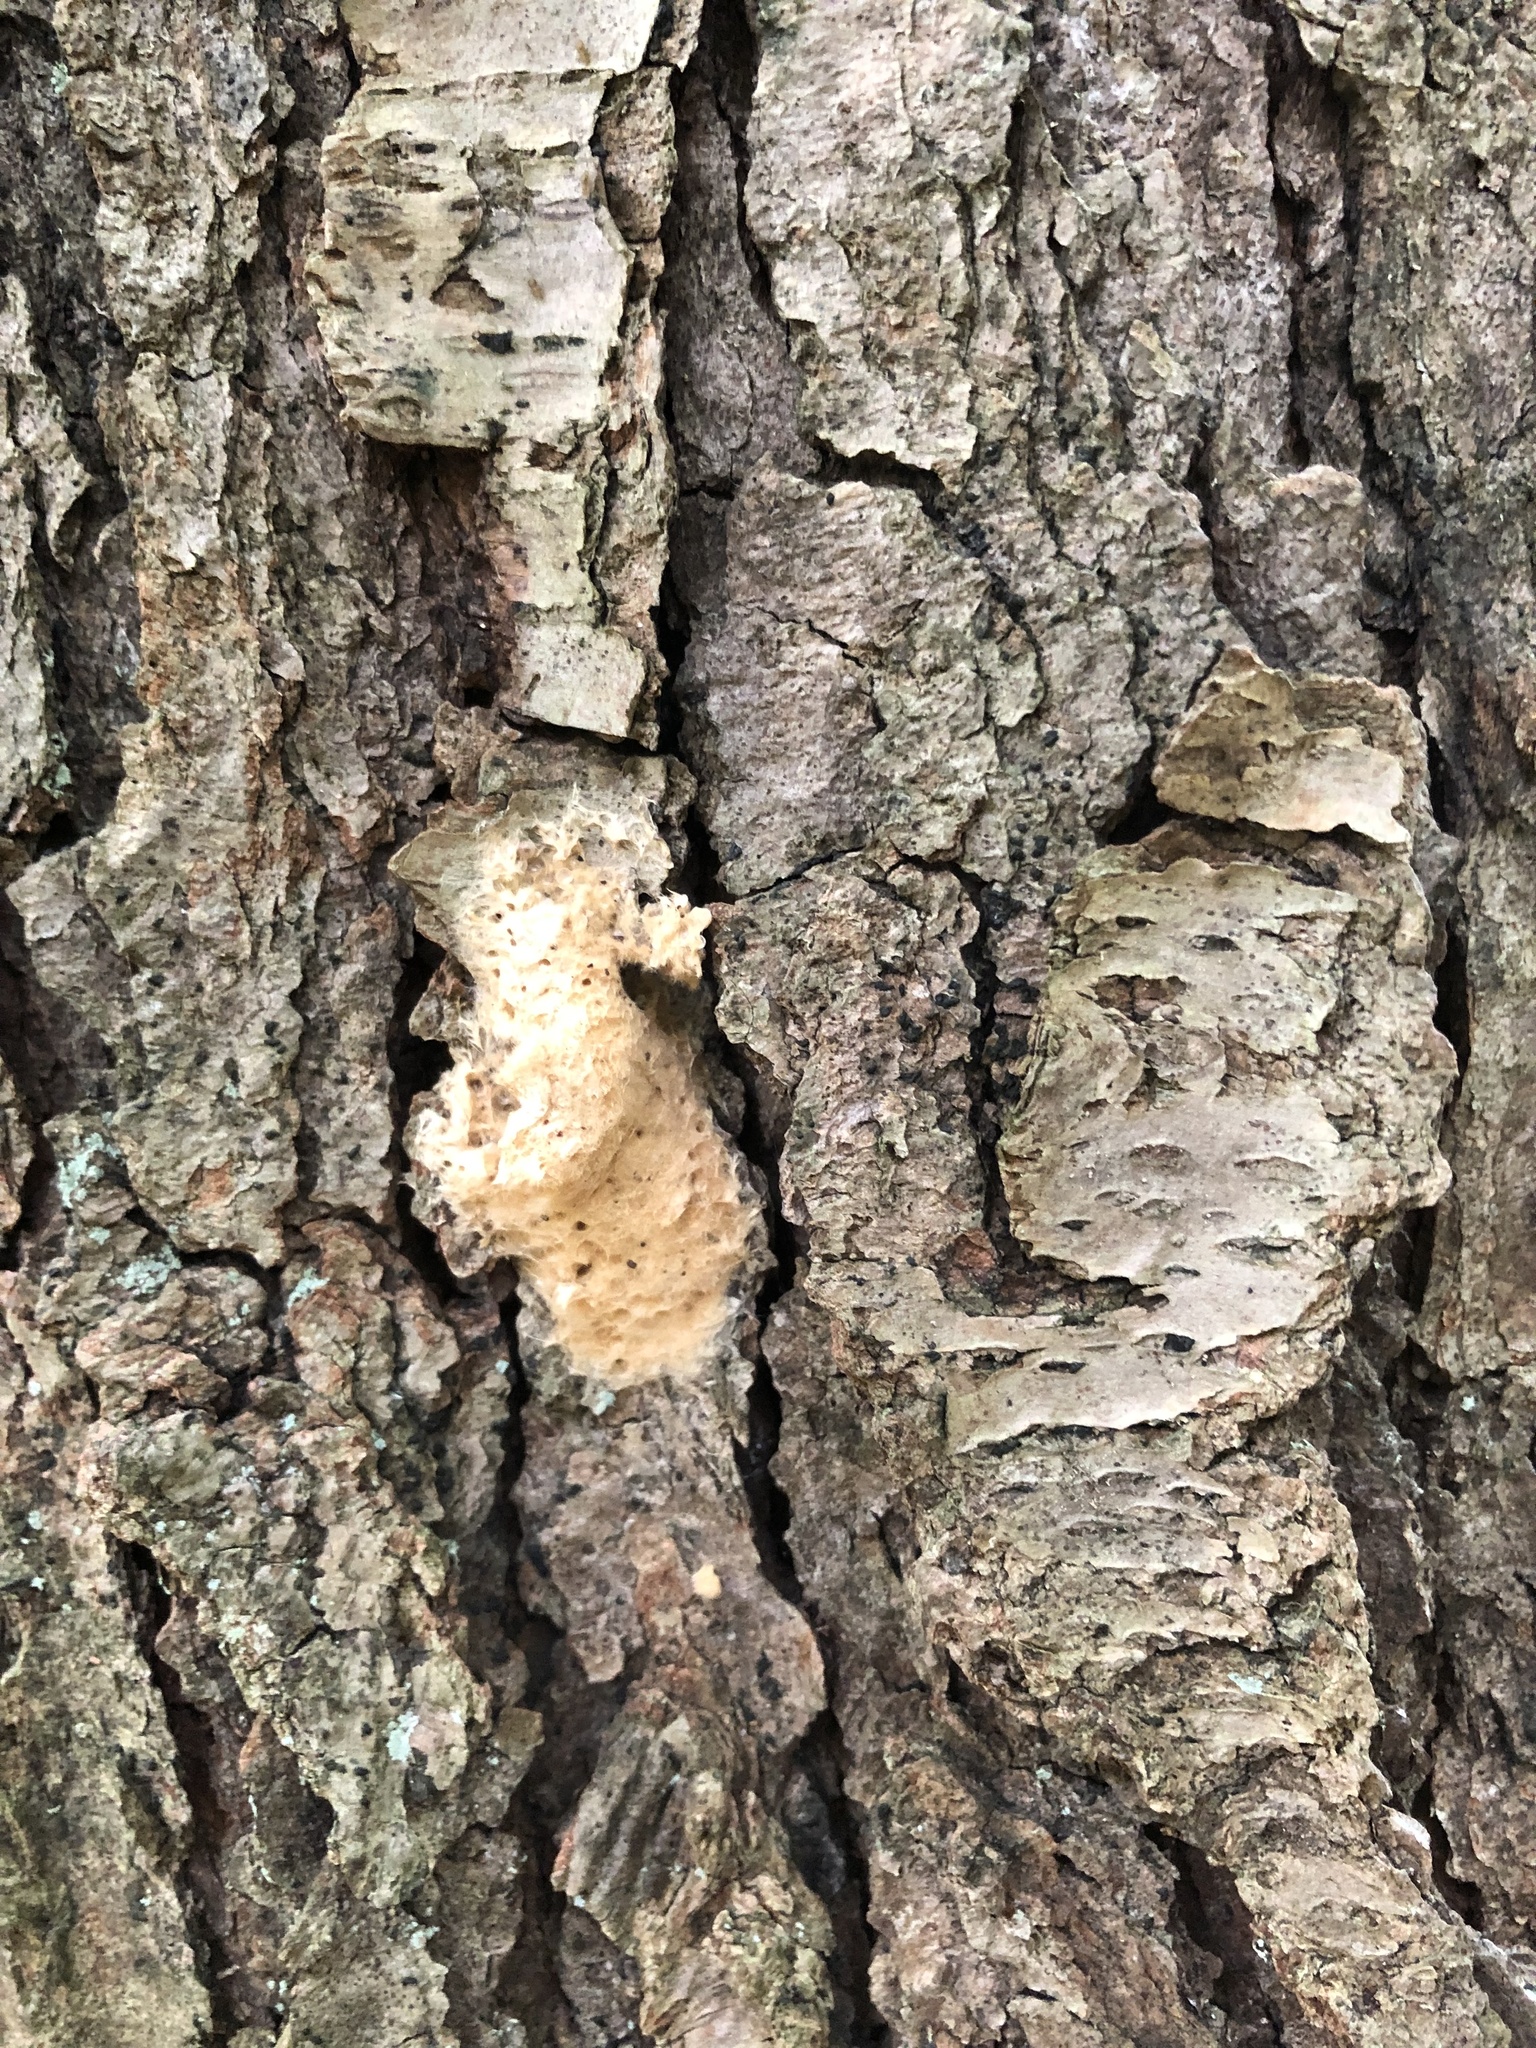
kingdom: Animalia
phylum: Arthropoda
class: Insecta
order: Lepidoptera
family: Erebidae
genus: Lymantria
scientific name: Lymantria dispar
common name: Gypsy moth
